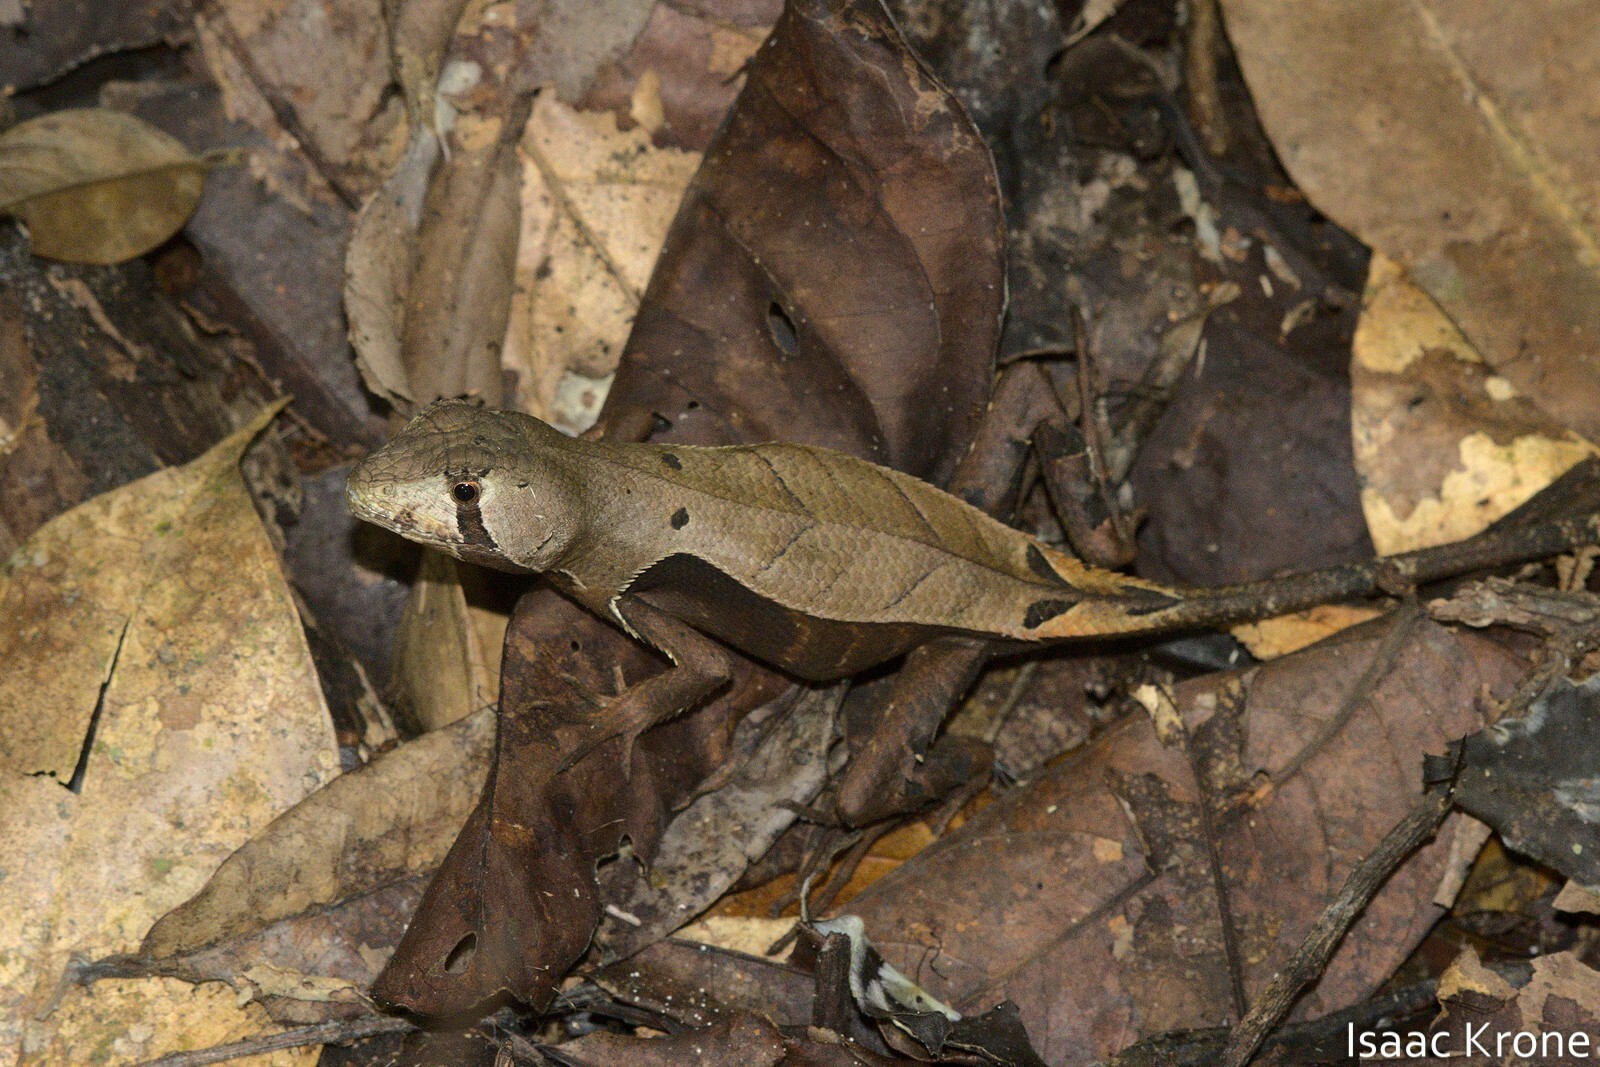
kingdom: Animalia
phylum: Chordata
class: Squamata
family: Tropiduridae
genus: Stenocercus
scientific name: Stenocercus fimbriatus
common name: Western leaf lizard
